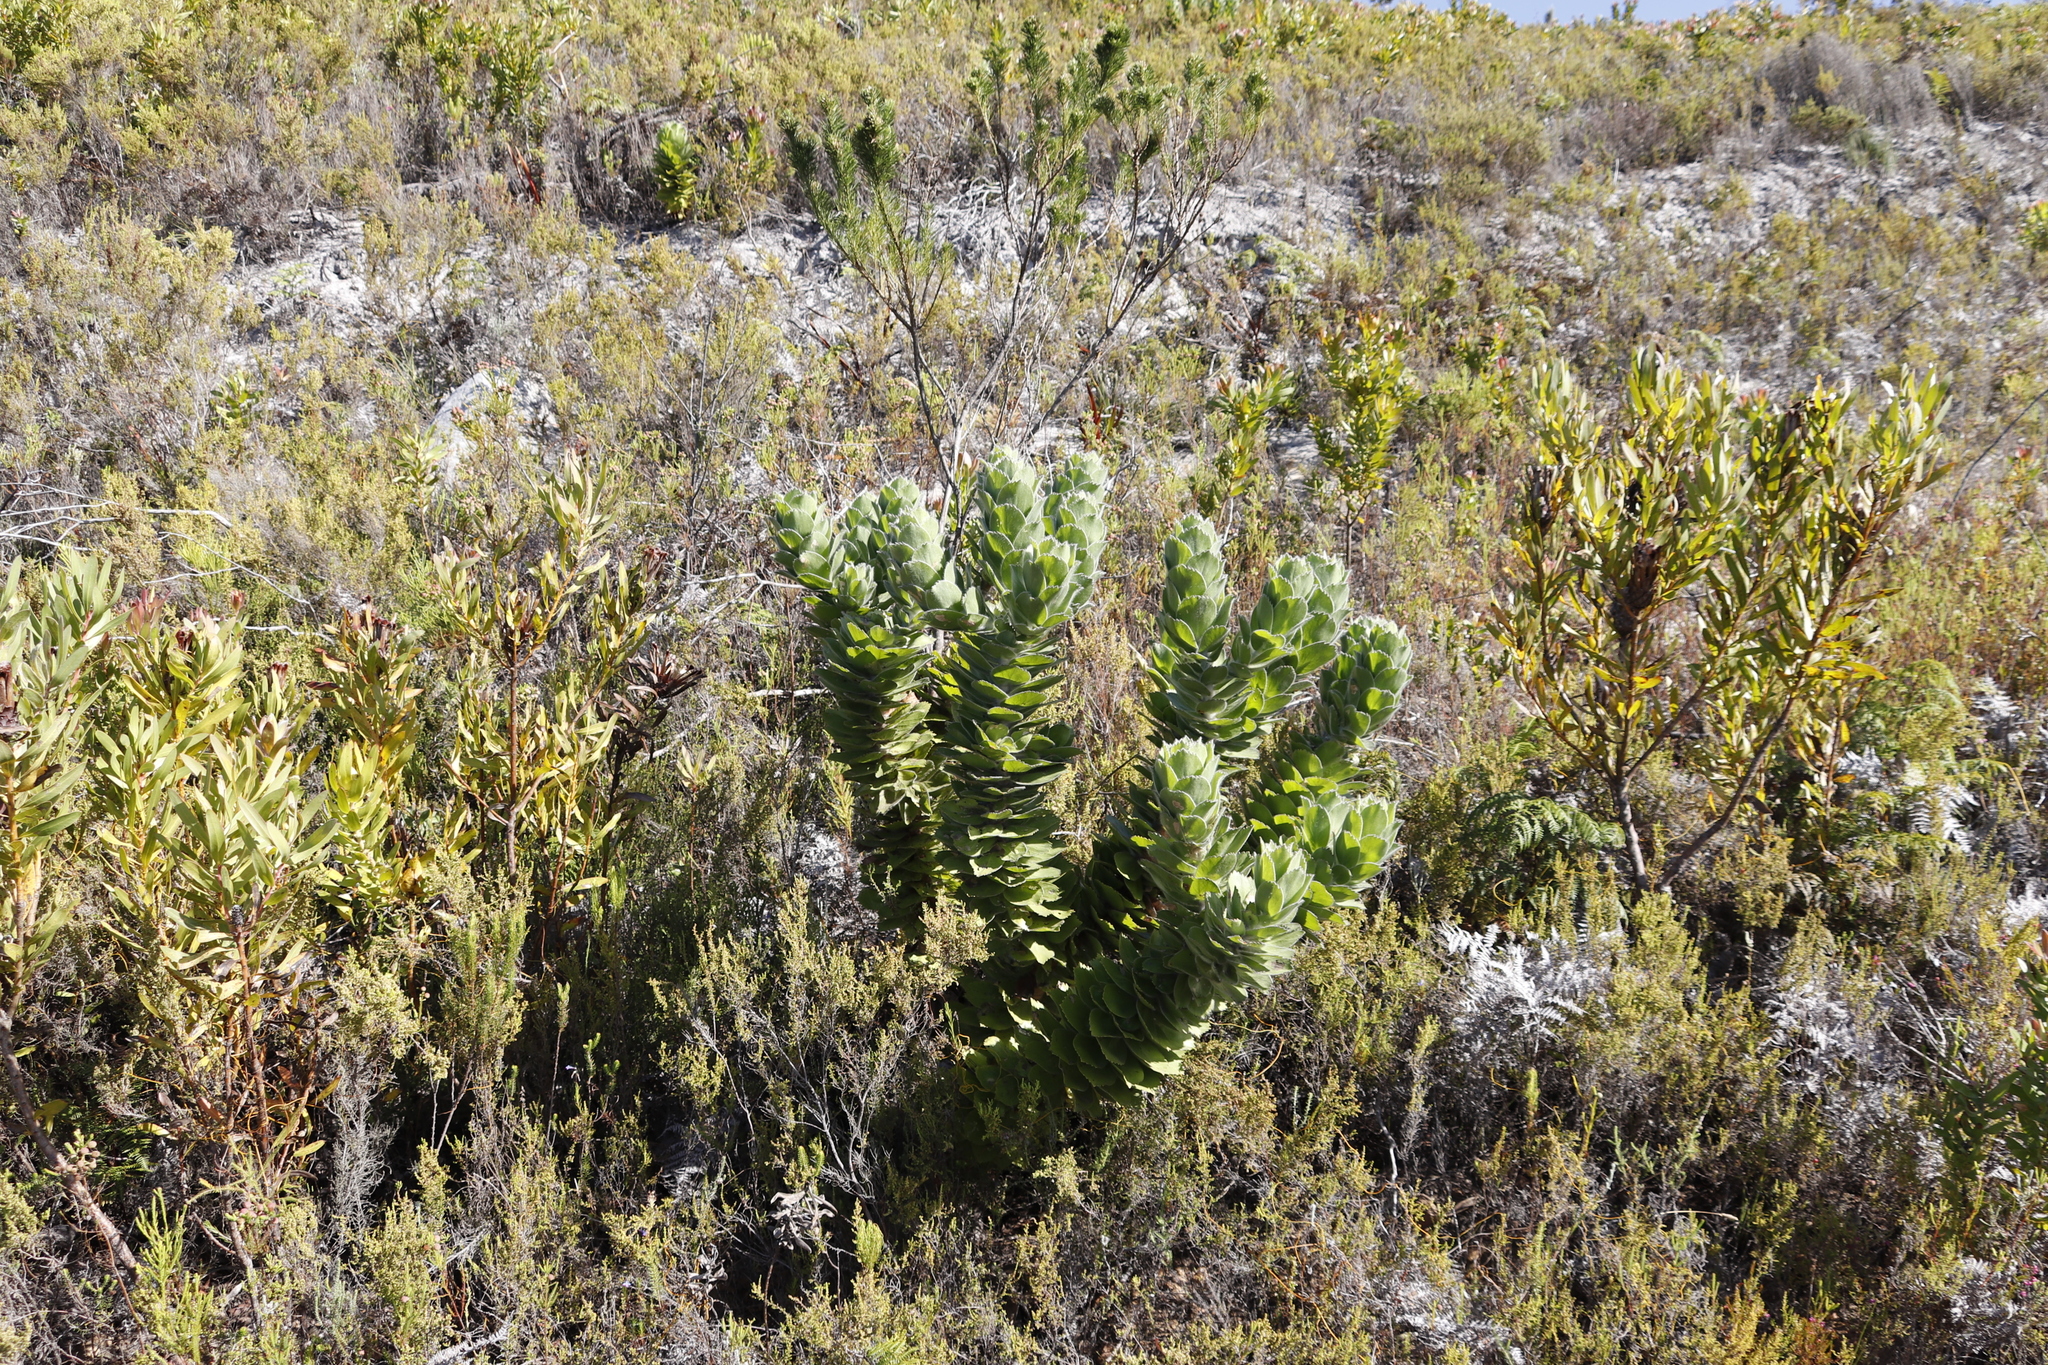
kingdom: Plantae
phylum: Tracheophyta
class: Magnoliopsida
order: Proteales
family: Proteaceae
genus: Leucospermum
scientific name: Leucospermum conocarpodendron
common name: Tree pincushion
